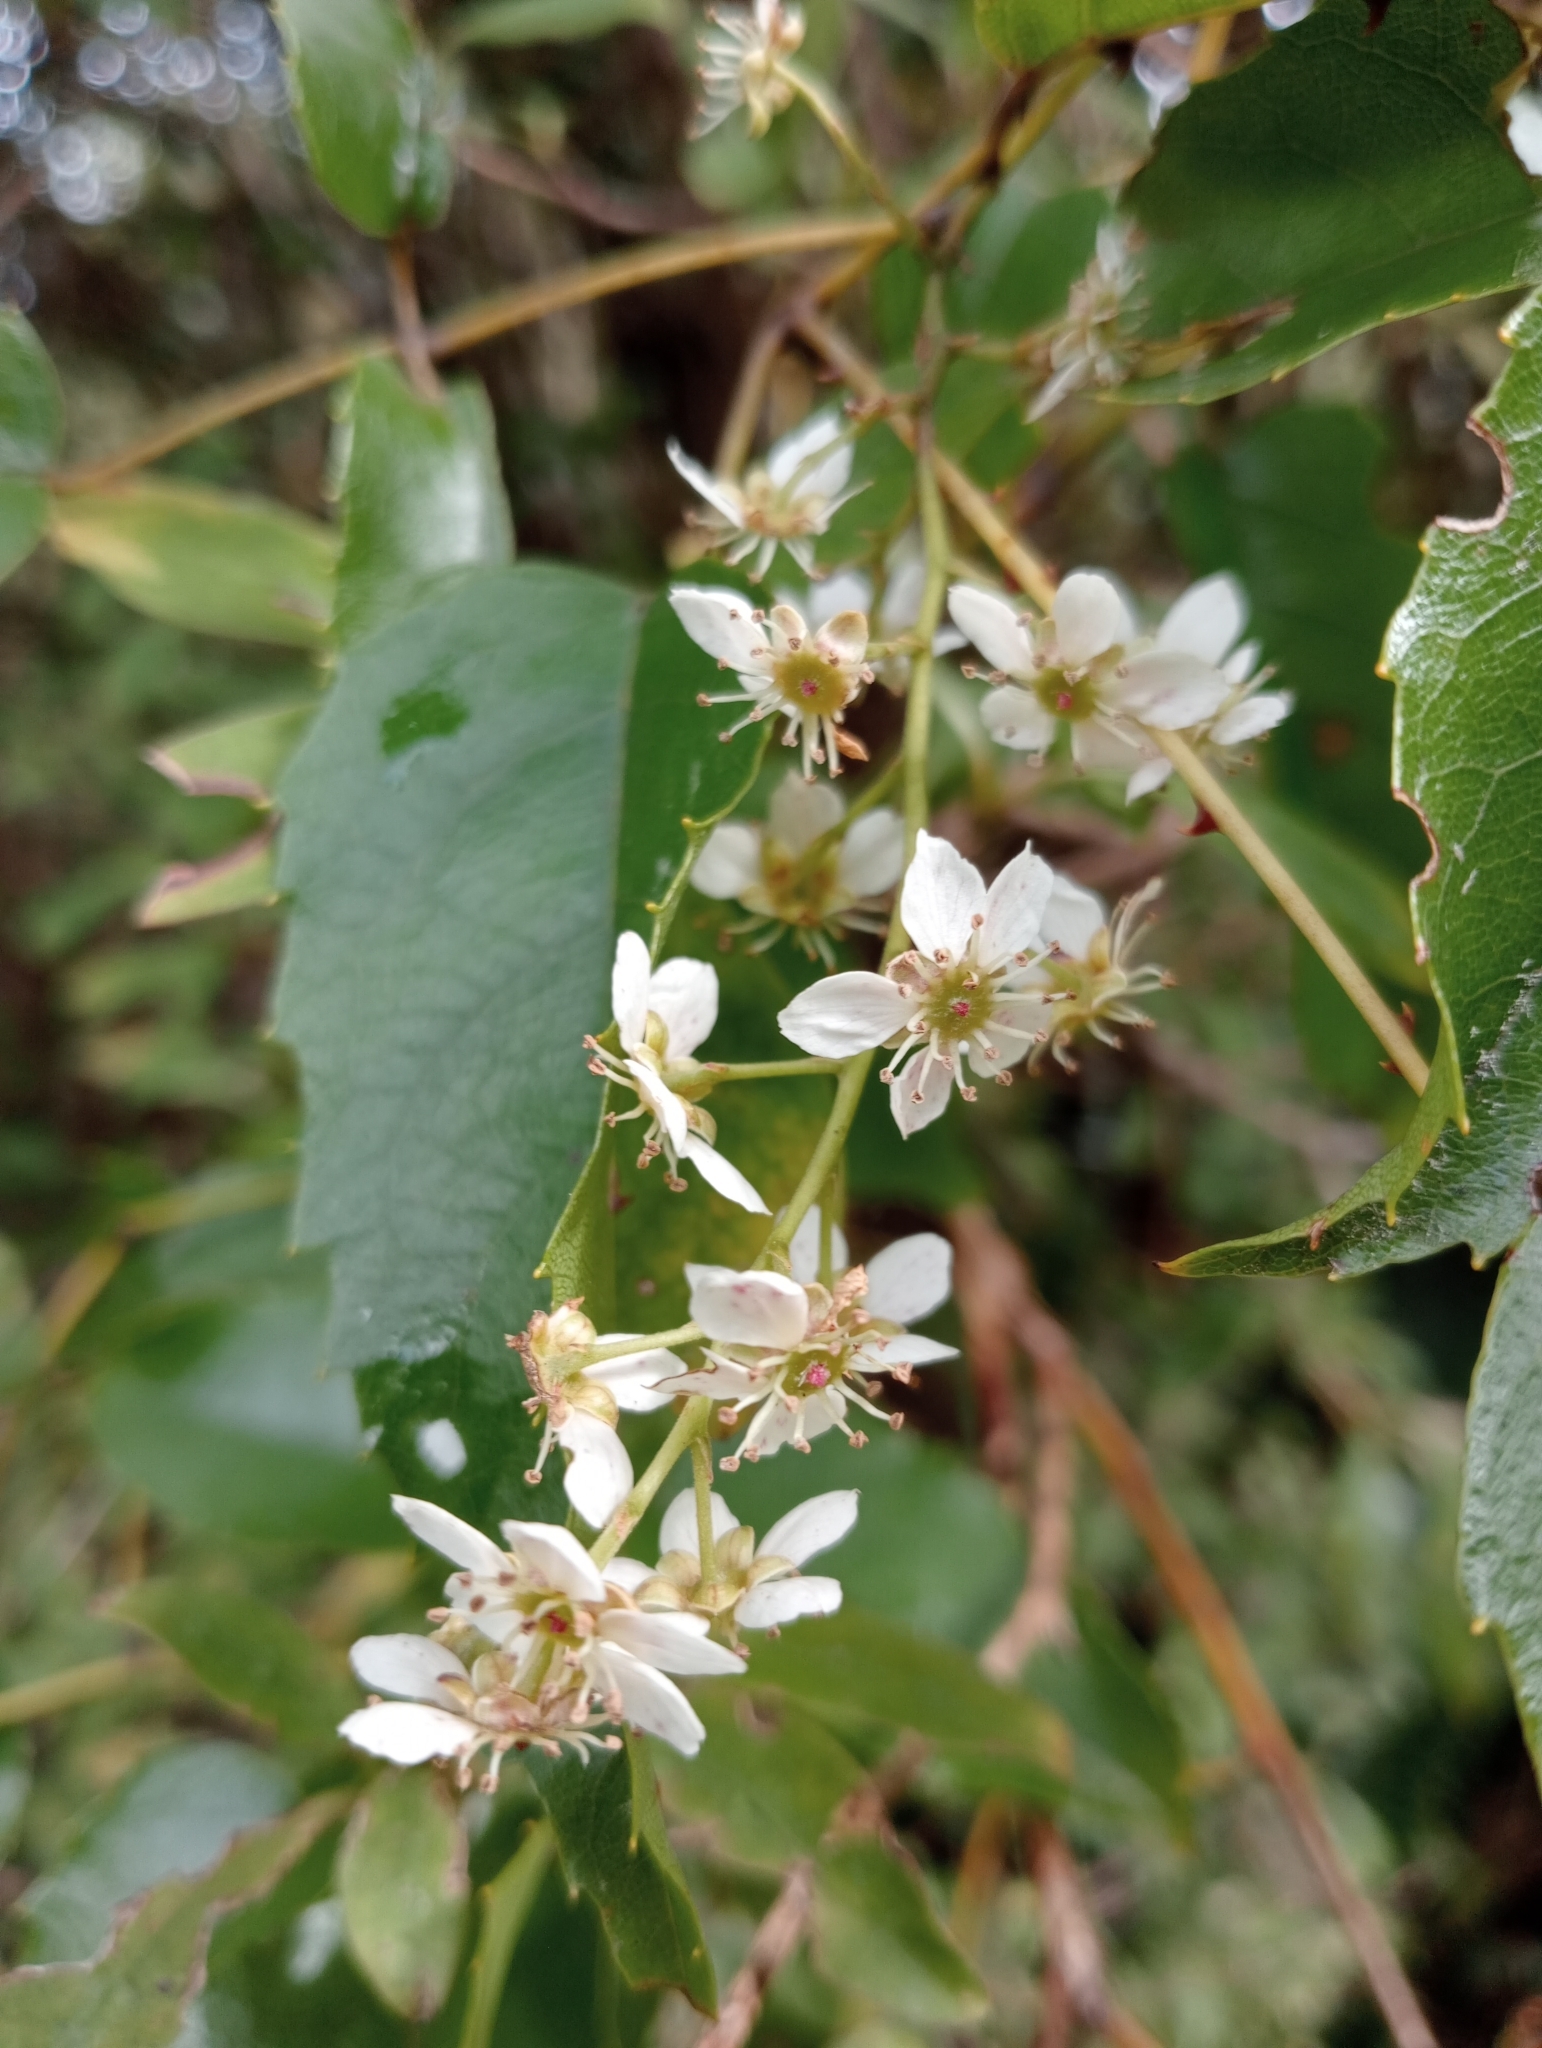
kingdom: Plantae
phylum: Tracheophyta
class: Magnoliopsida
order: Rosales
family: Rosaceae
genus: Rubus
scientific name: Rubus cissoides
